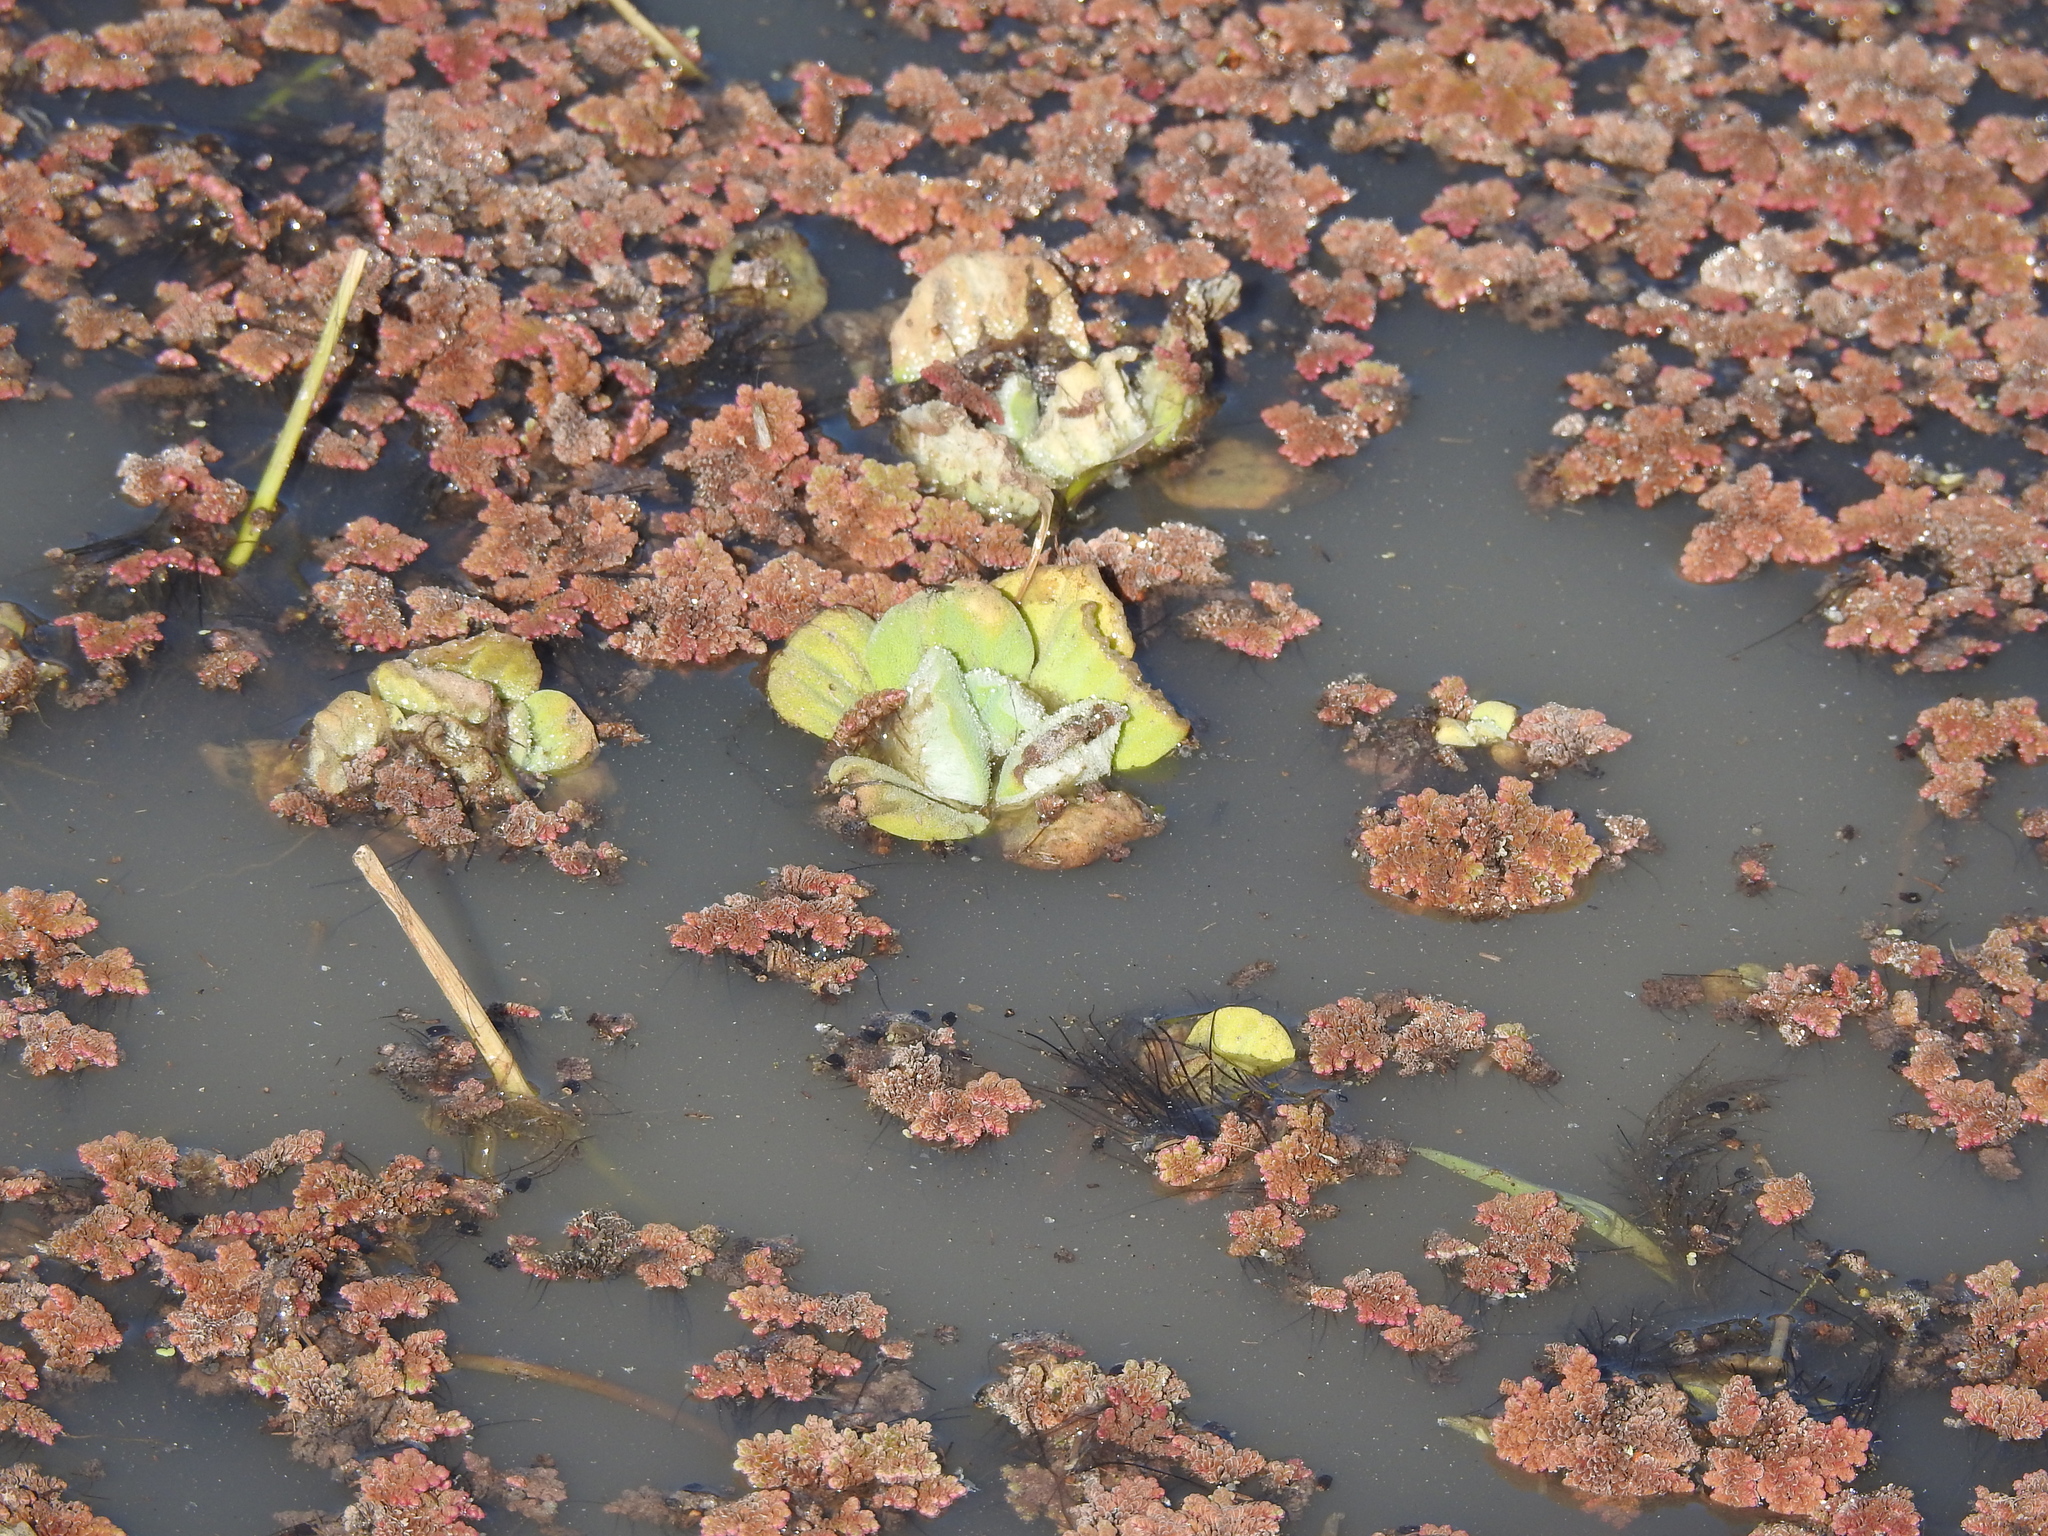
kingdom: Plantae
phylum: Tracheophyta
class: Liliopsida
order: Alismatales
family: Araceae
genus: Pistia
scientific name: Pistia stratiotes
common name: Water lettuce
